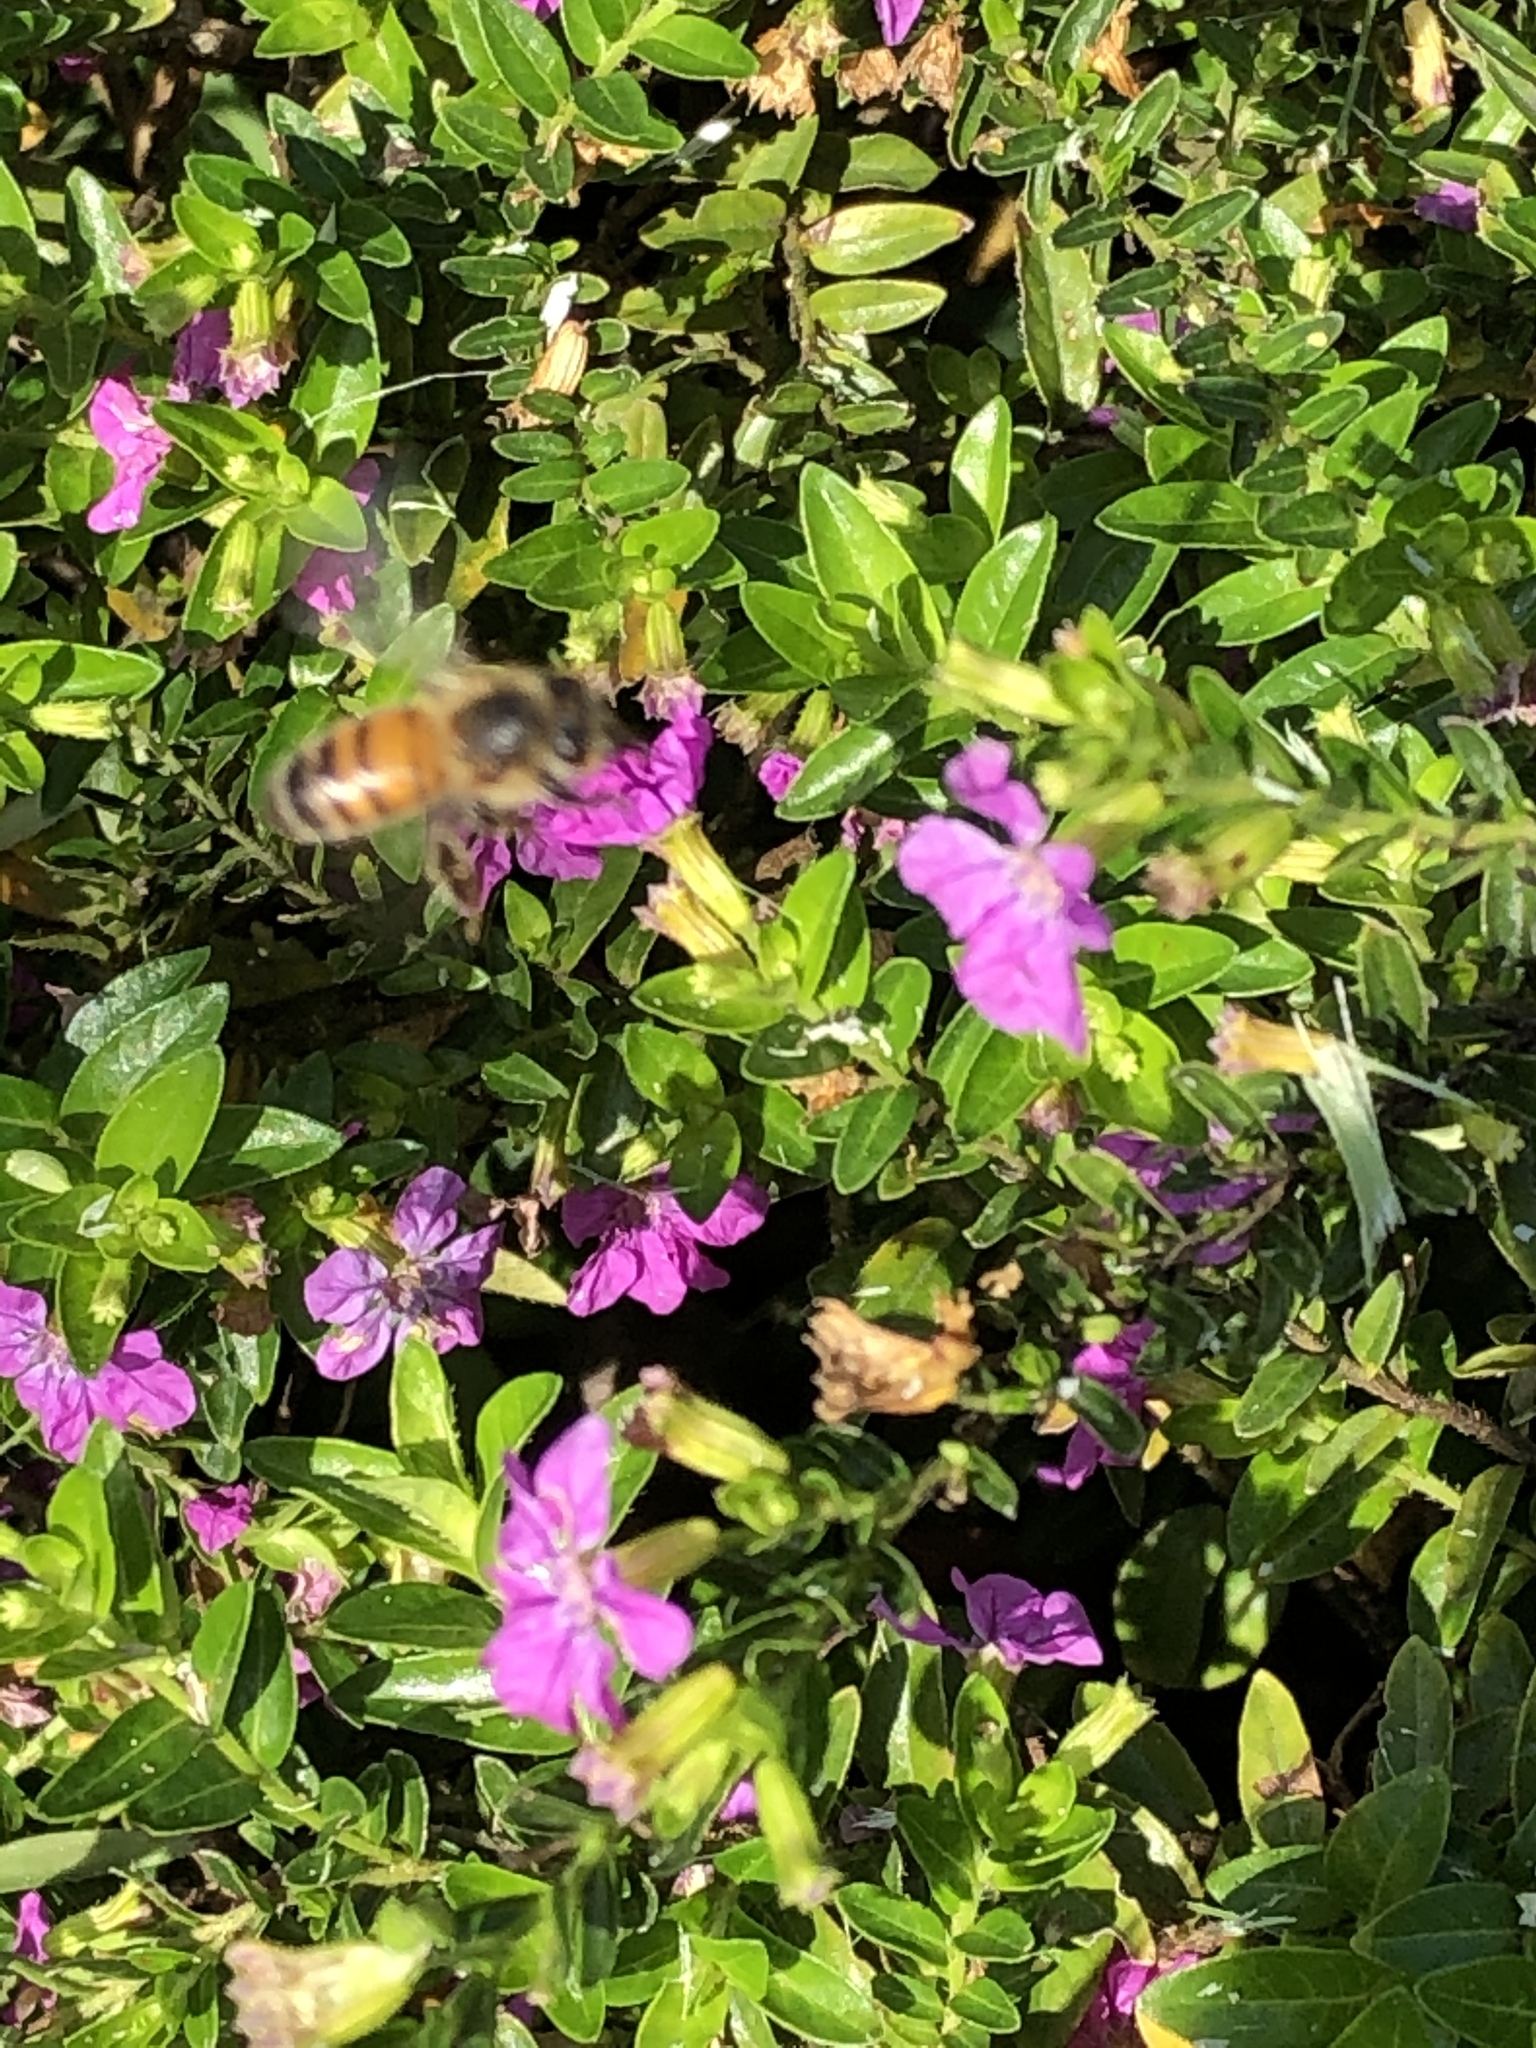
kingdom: Animalia
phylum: Arthropoda
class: Insecta
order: Hymenoptera
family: Apidae
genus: Apis
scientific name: Apis mellifera
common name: Honey bee
